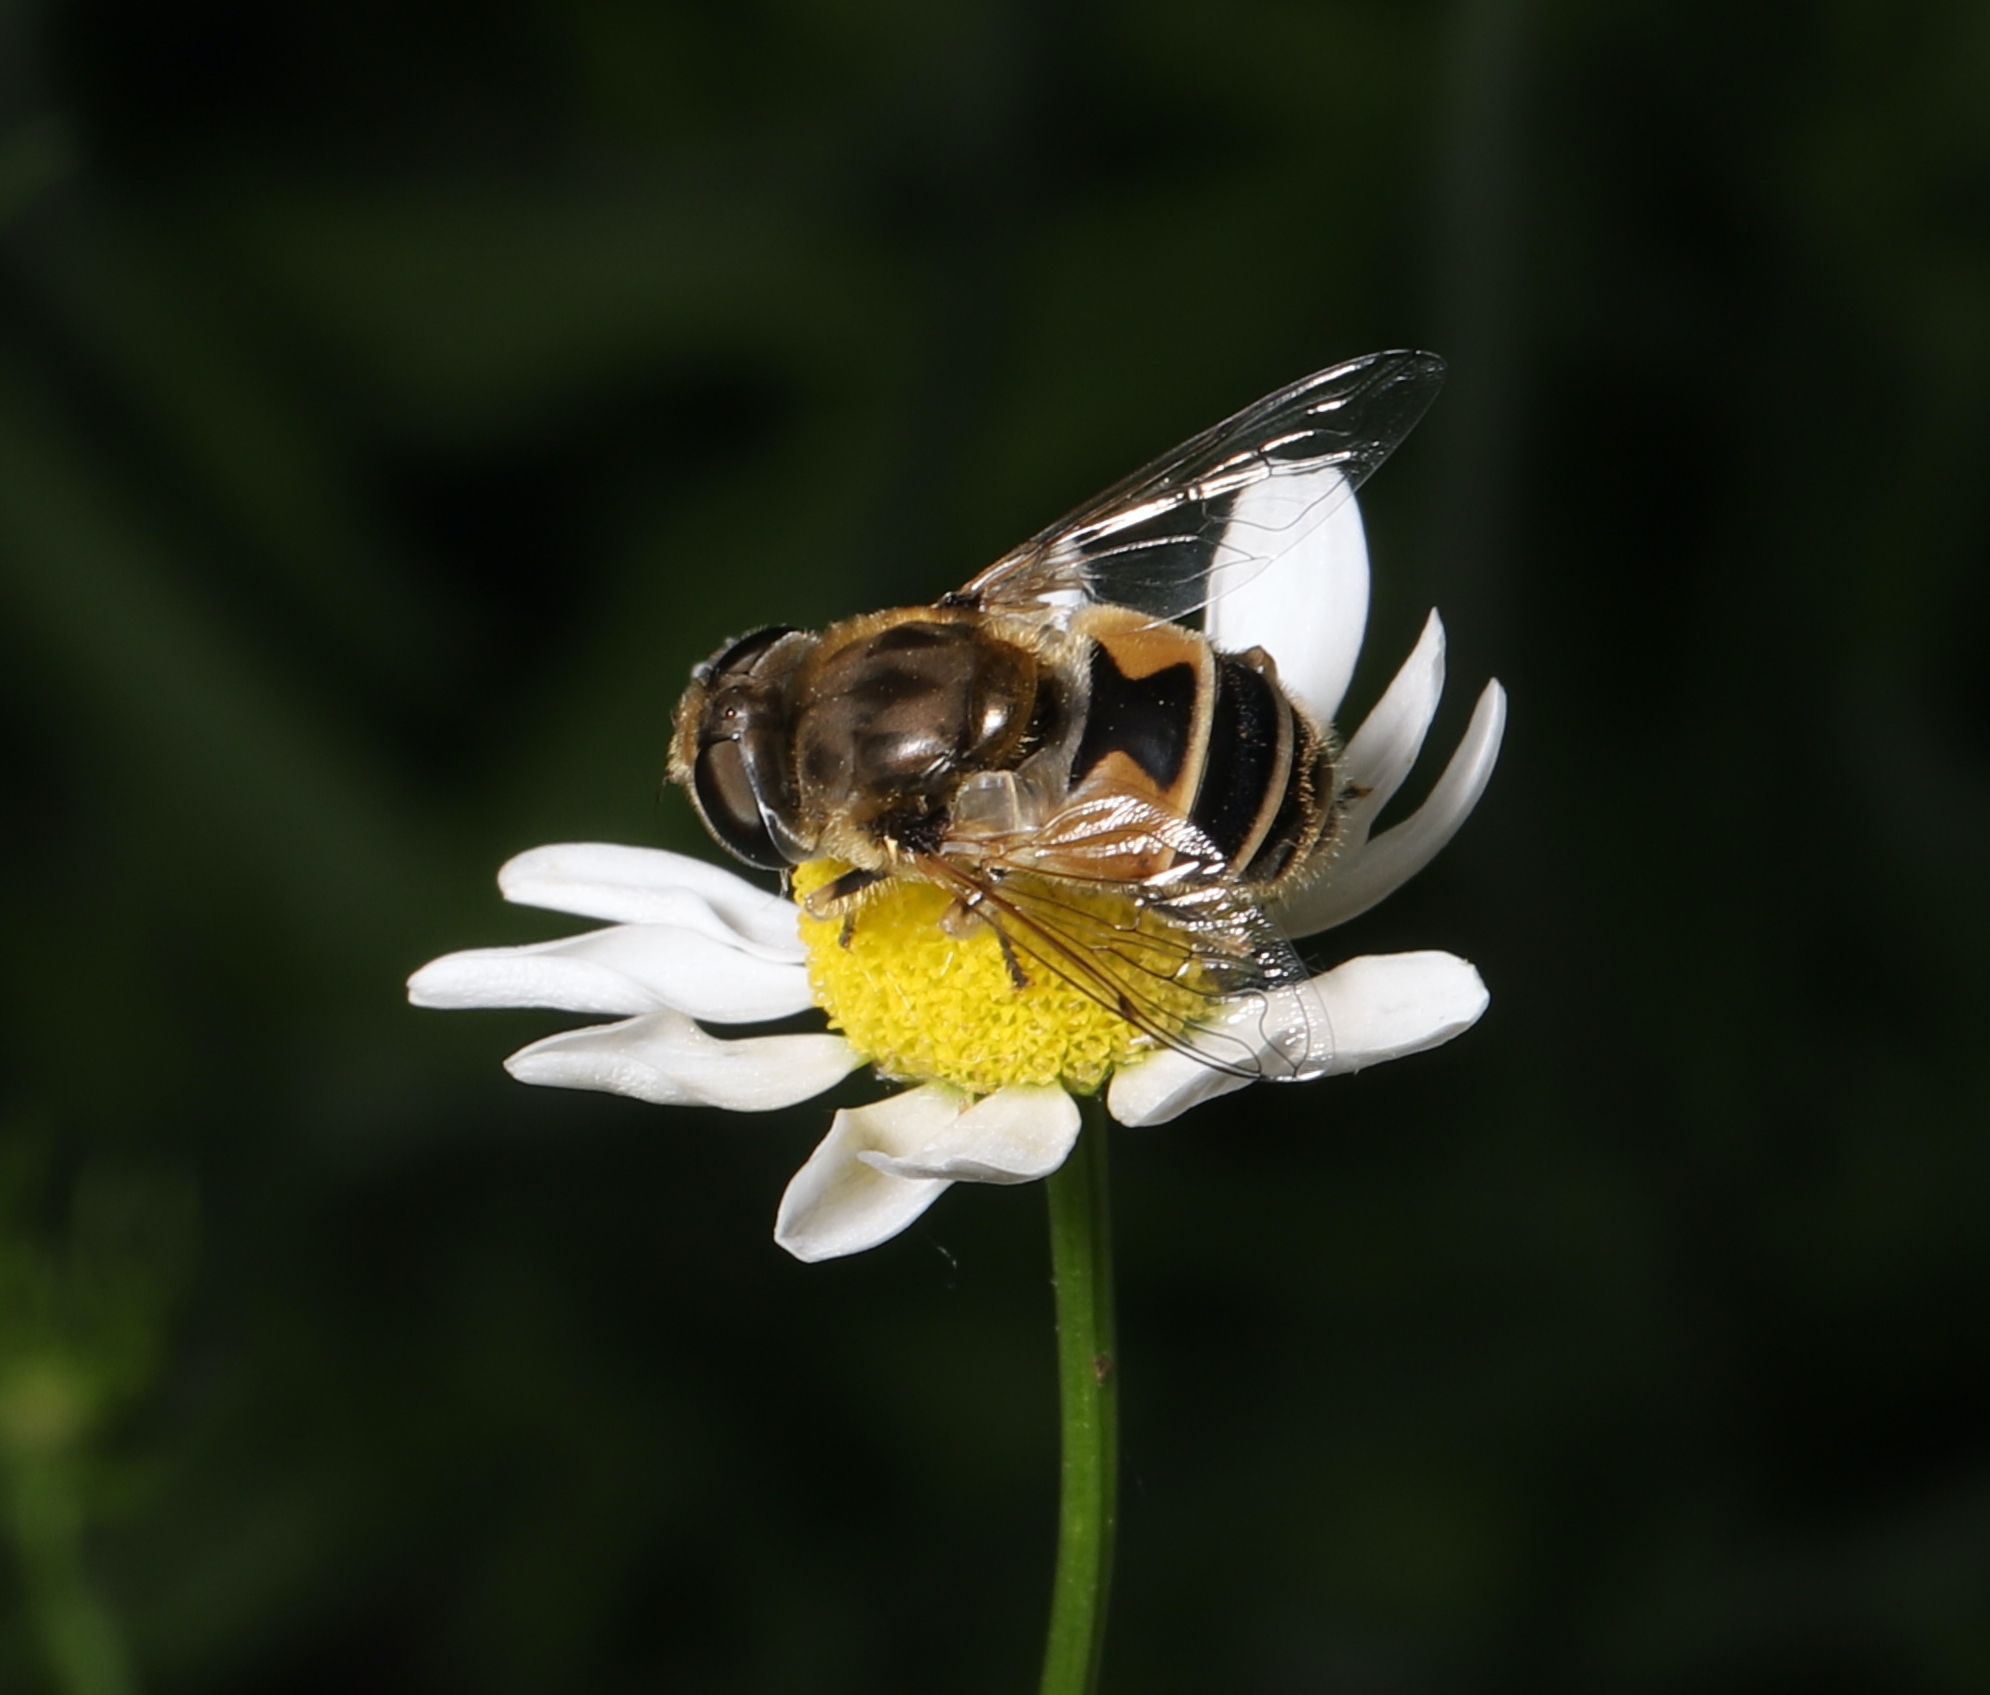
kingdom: Animalia
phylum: Arthropoda
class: Insecta
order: Diptera
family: Syrphidae
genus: Eristalis
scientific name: Eristalis arbustorum
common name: Hover fly
